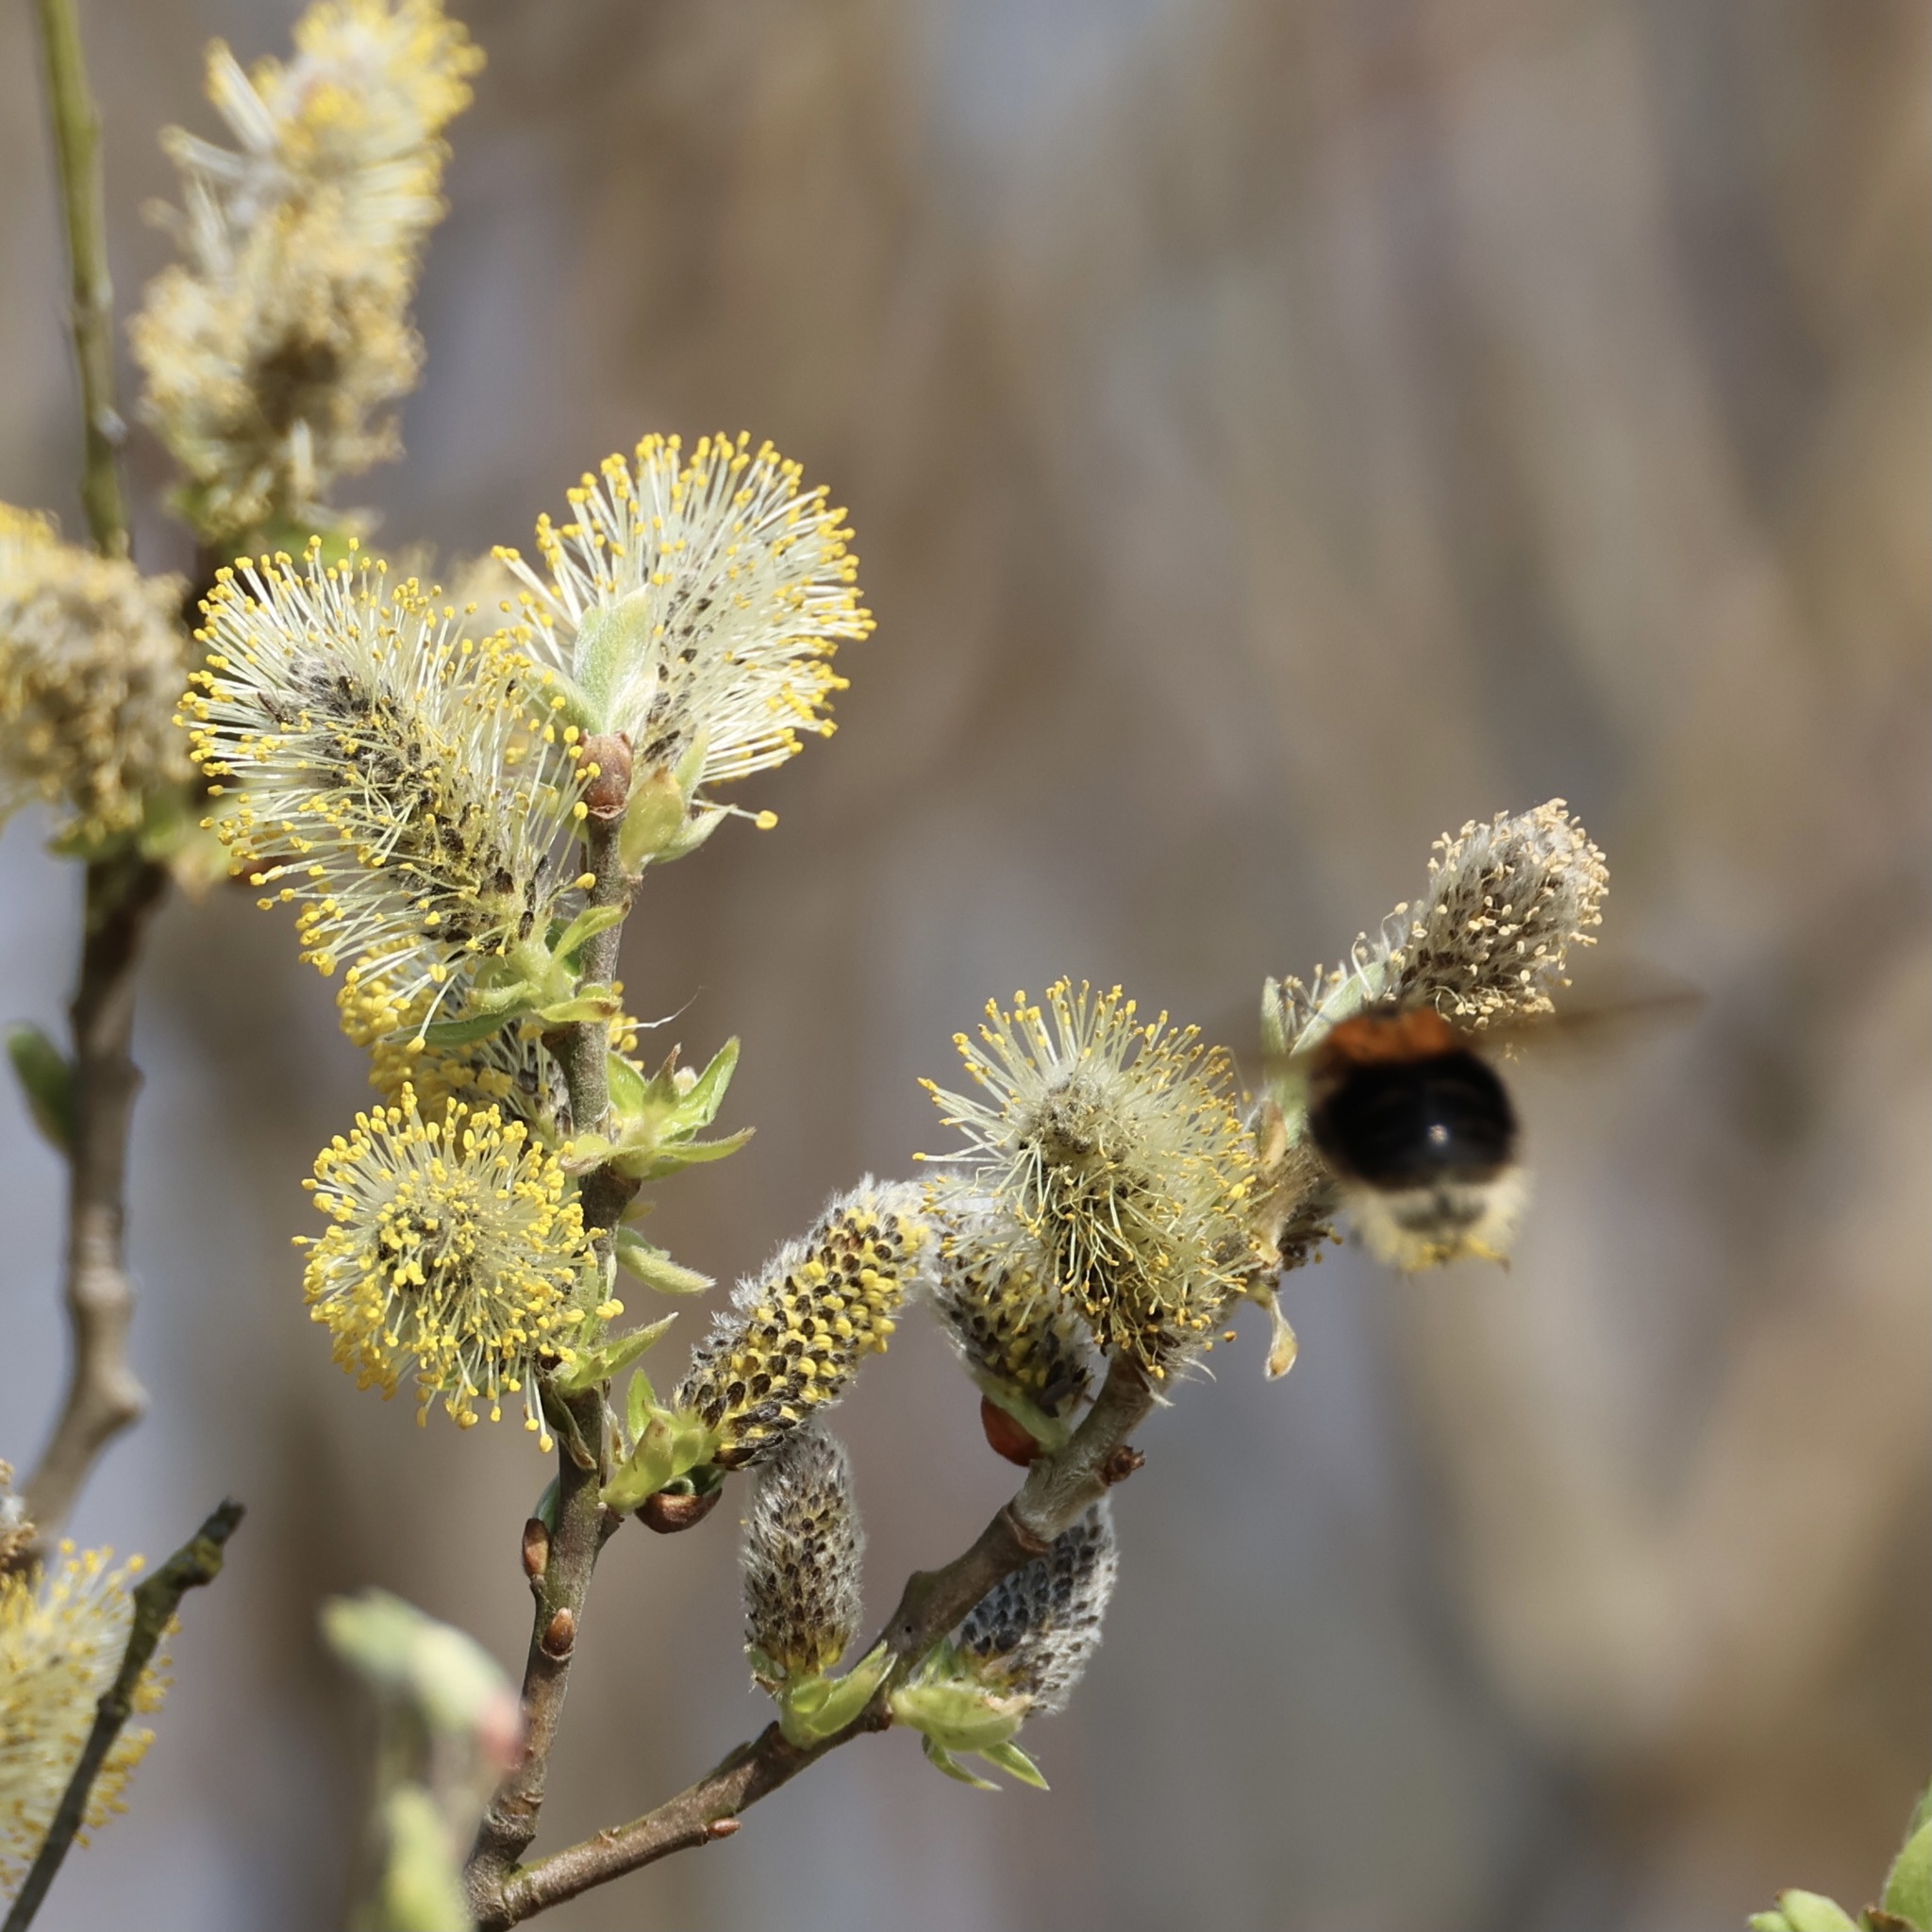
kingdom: Animalia
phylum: Arthropoda
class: Insecta
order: Hymenoptera
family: Apidae
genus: Bombus
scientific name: Bombus hypnorum
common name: New garden bumblebee
